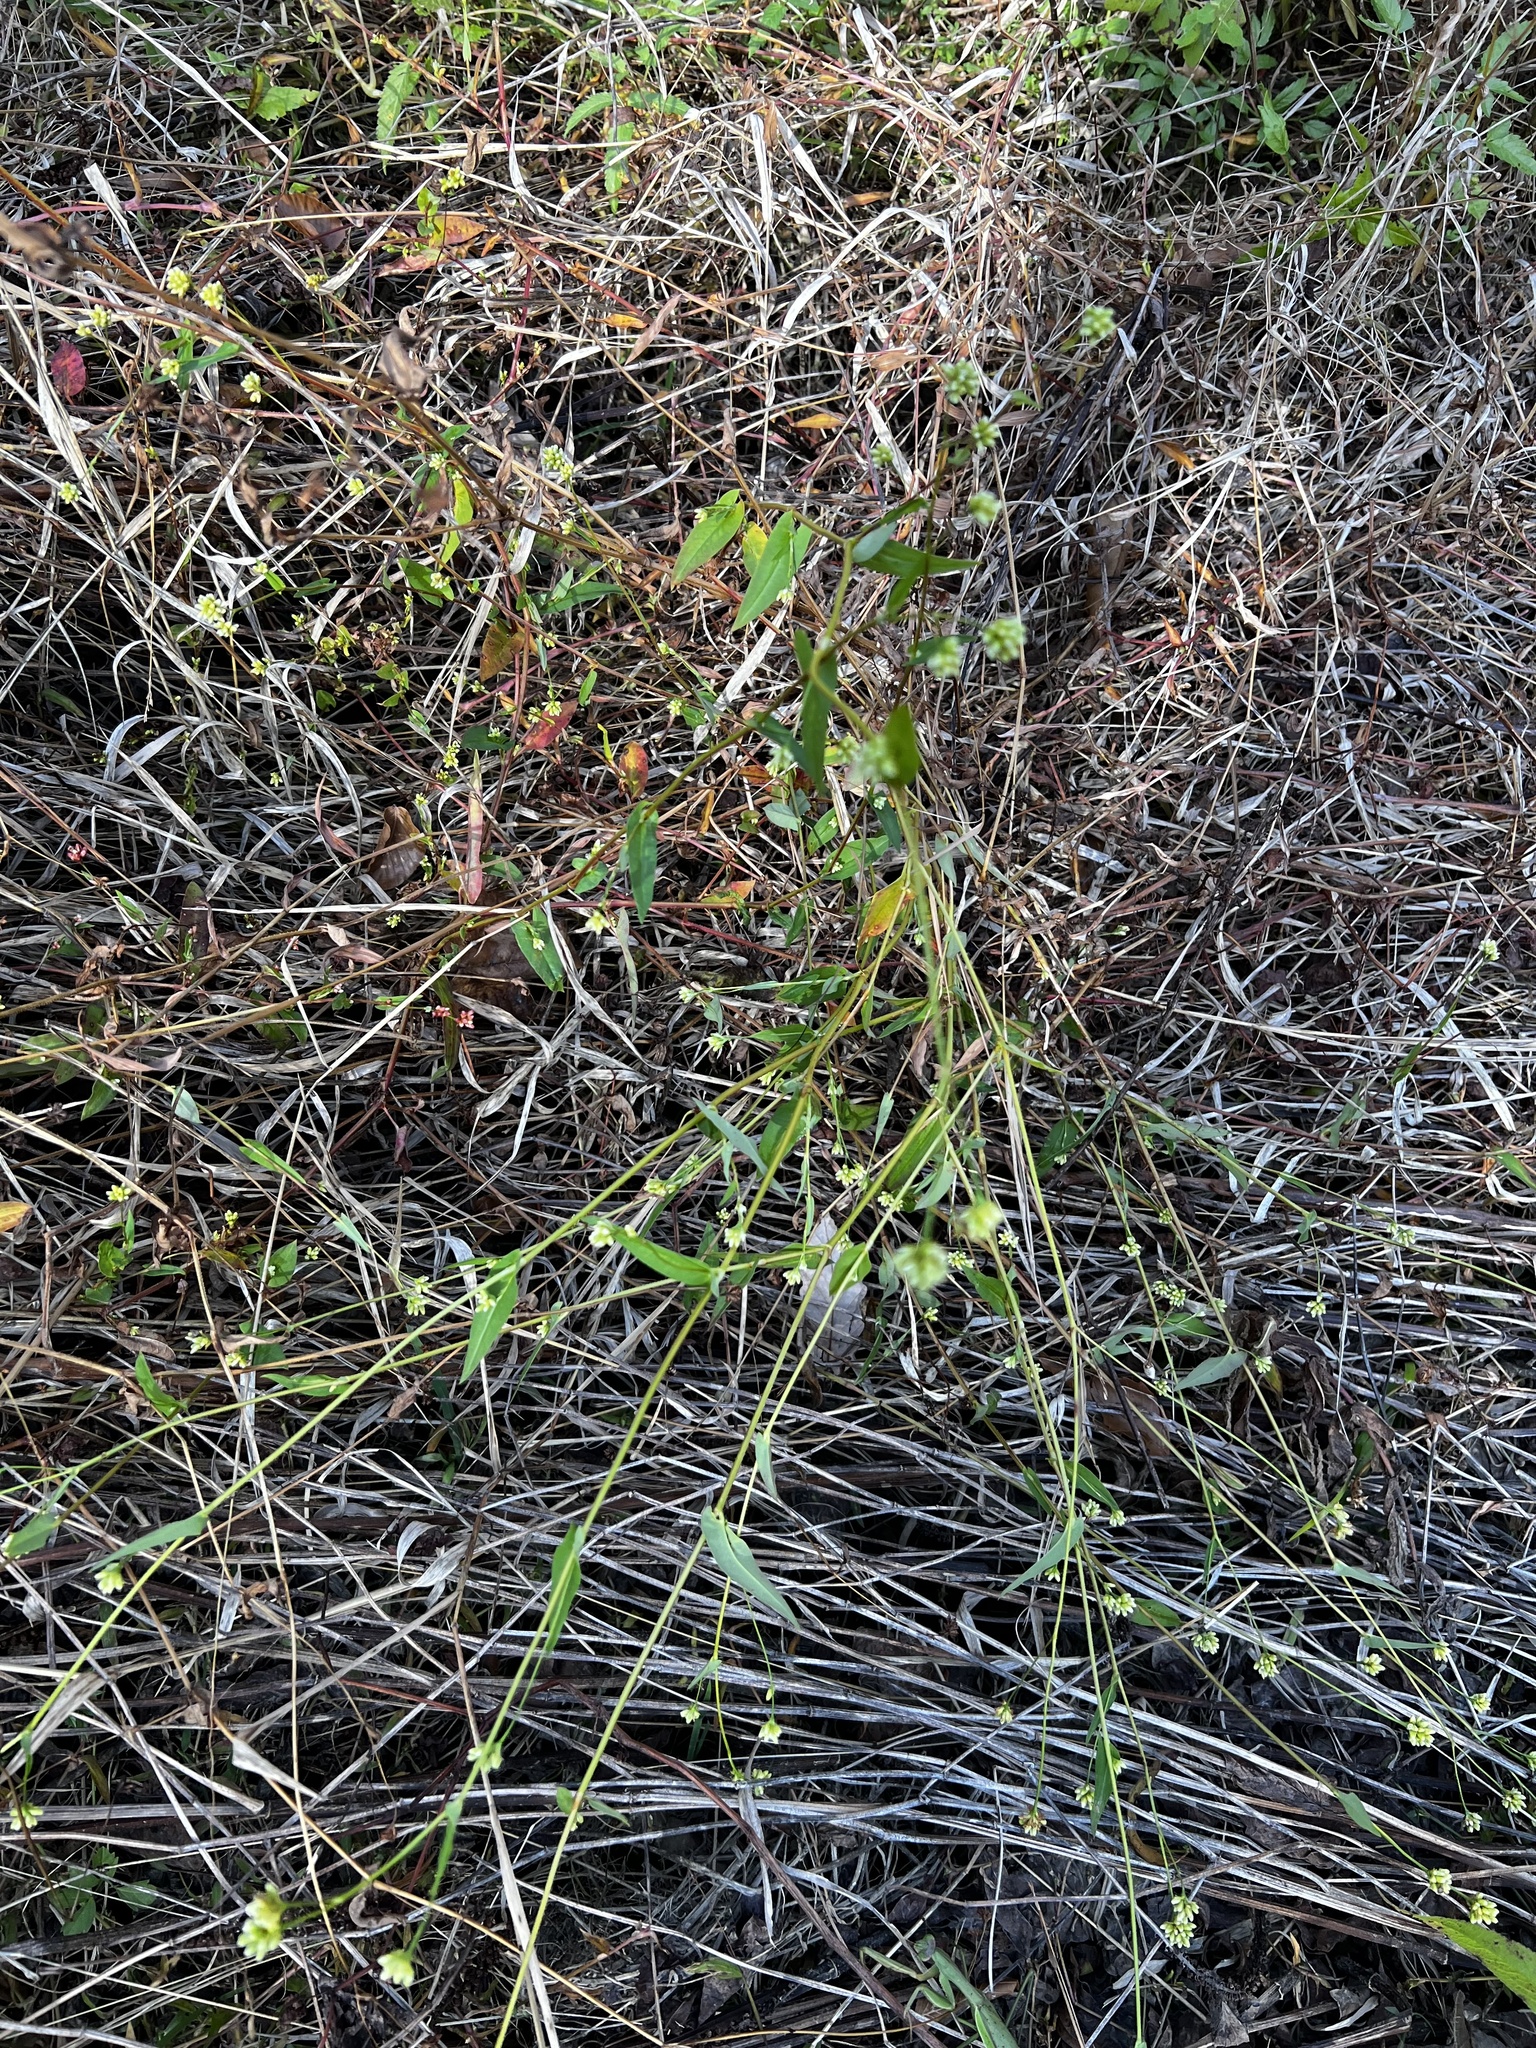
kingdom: Plantae
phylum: Tracheophyta
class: Magnoliopsida
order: Caryophyllales
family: Polygonaceae
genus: Persicaria
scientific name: Persicaria sagittata
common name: American tearthumb
